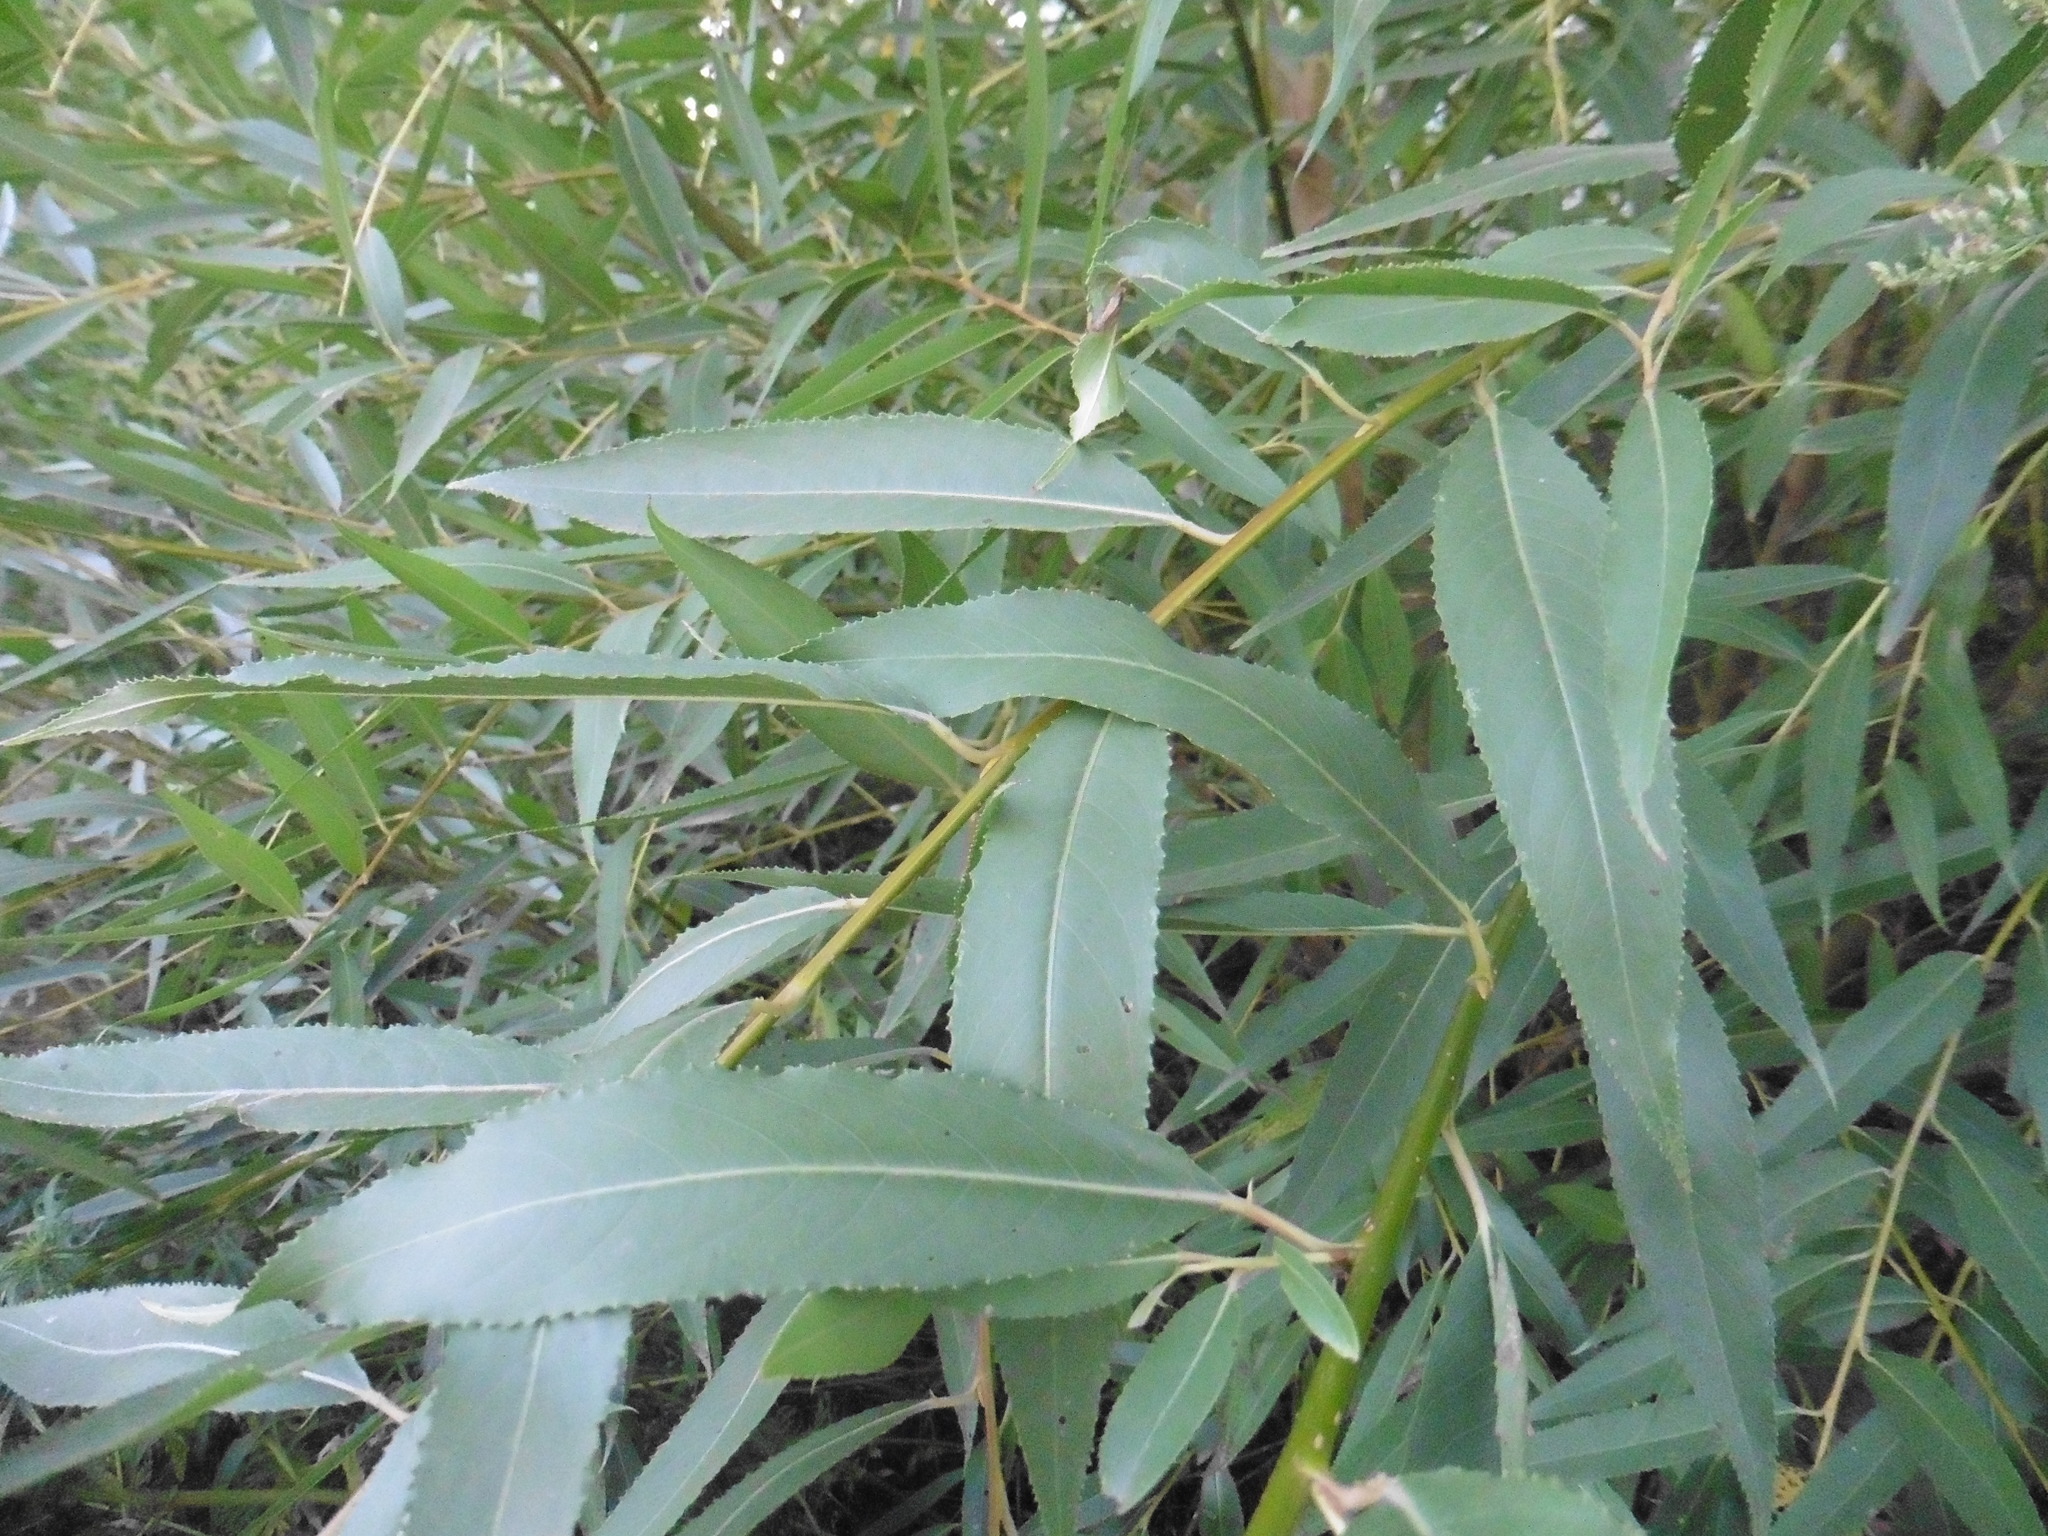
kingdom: Plantae
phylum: Tracheophyta
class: Magnoliopsida
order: Malpighiales
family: Salicaceae
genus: Salix
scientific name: Salix triandra
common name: Almond willow
